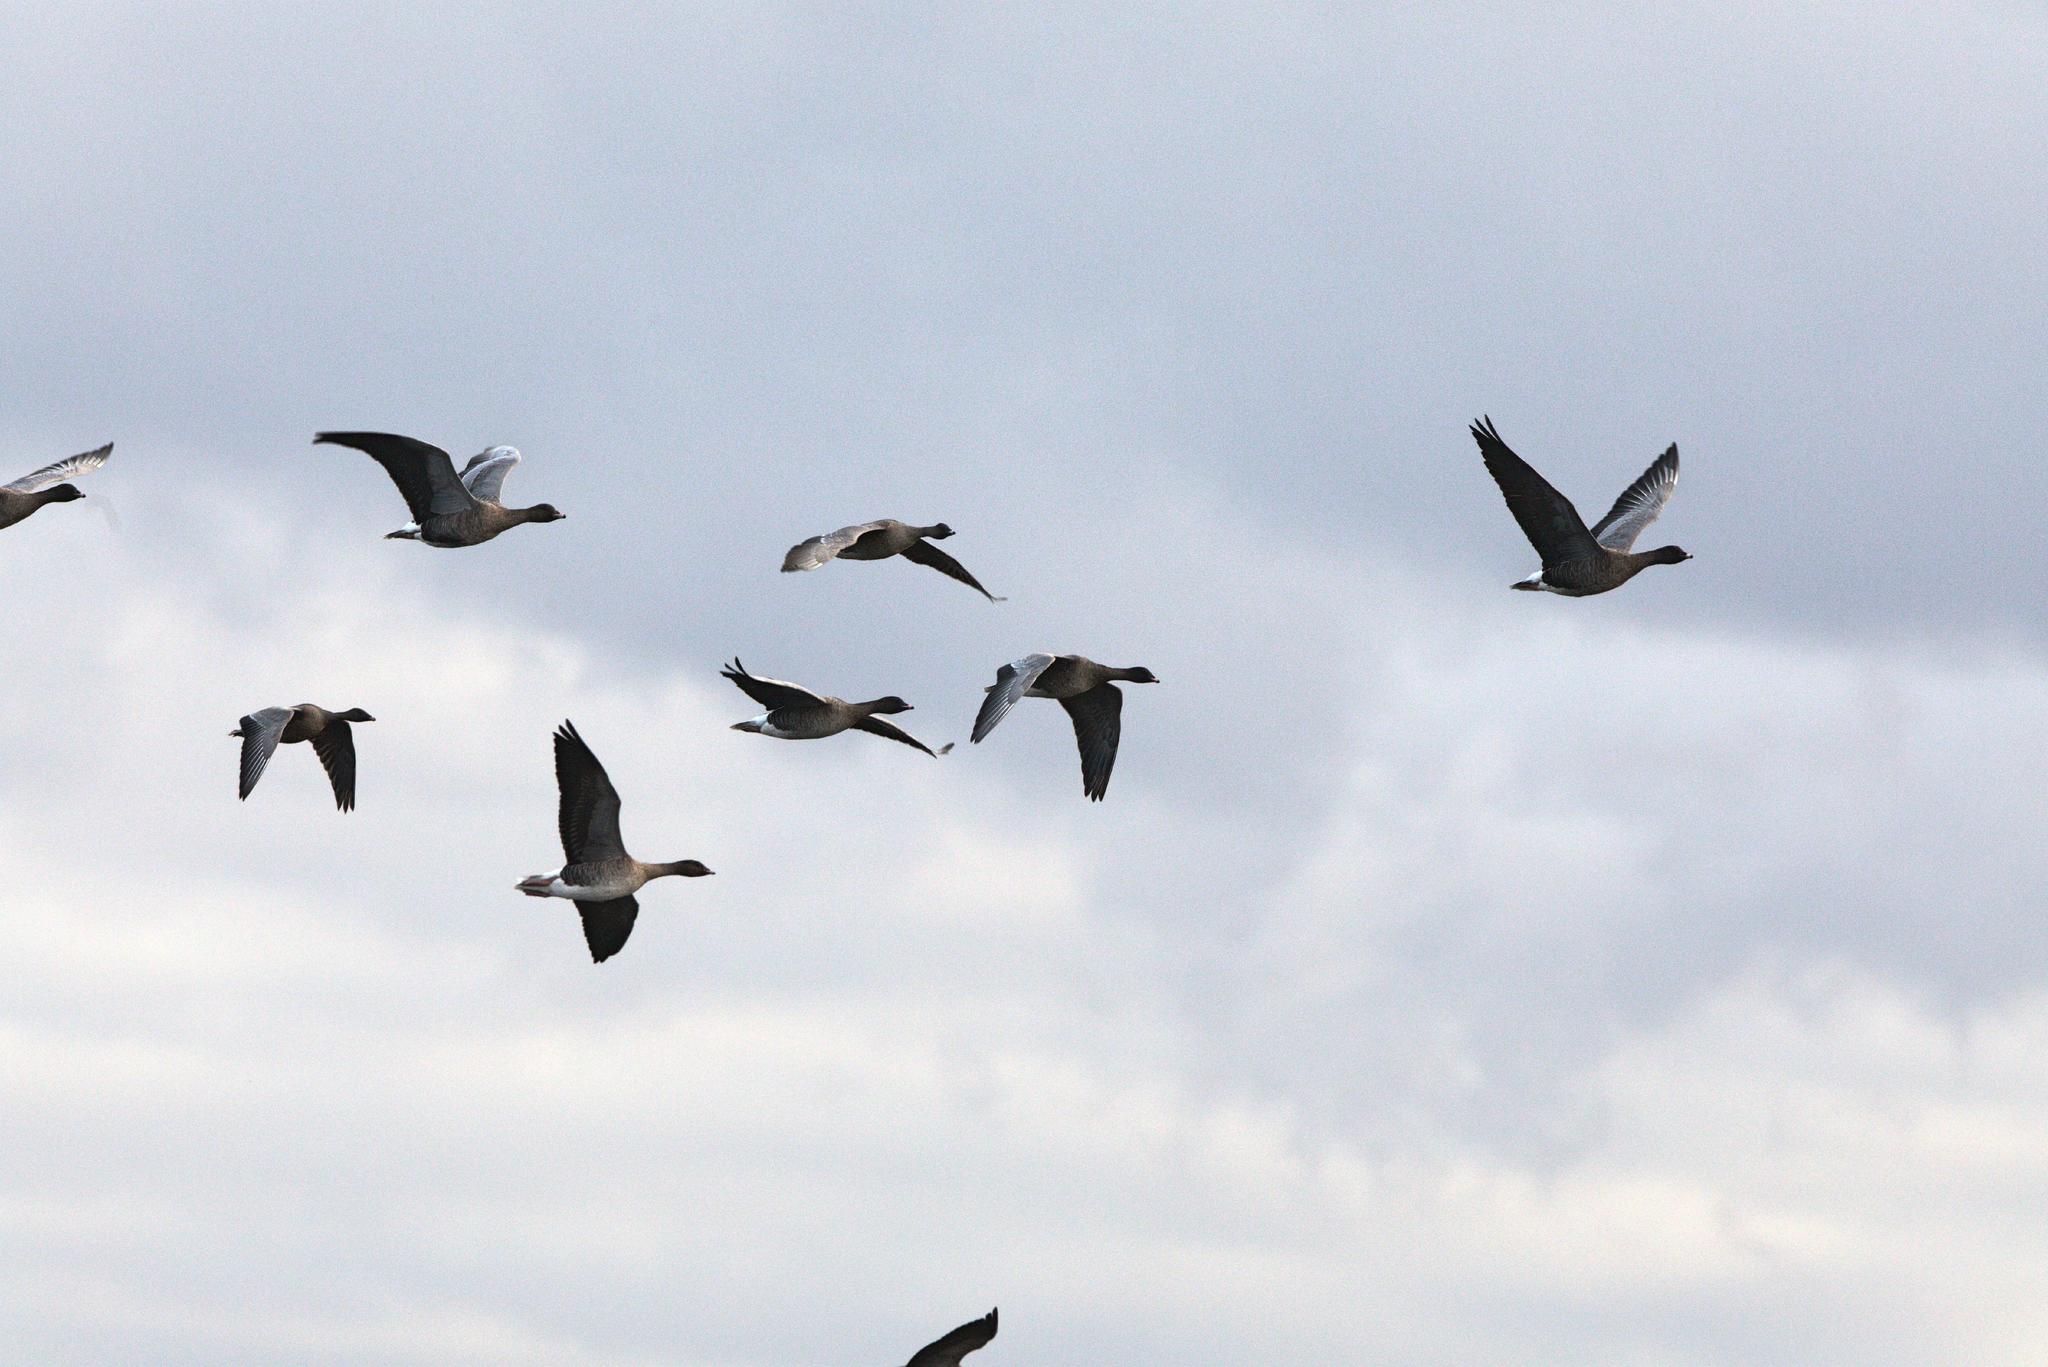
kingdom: Animalia
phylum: Chordata
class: Aves
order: Anseriformes
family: Anatidae
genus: Anser
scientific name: Anser brachyrhynchus
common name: Pink-footed goose
